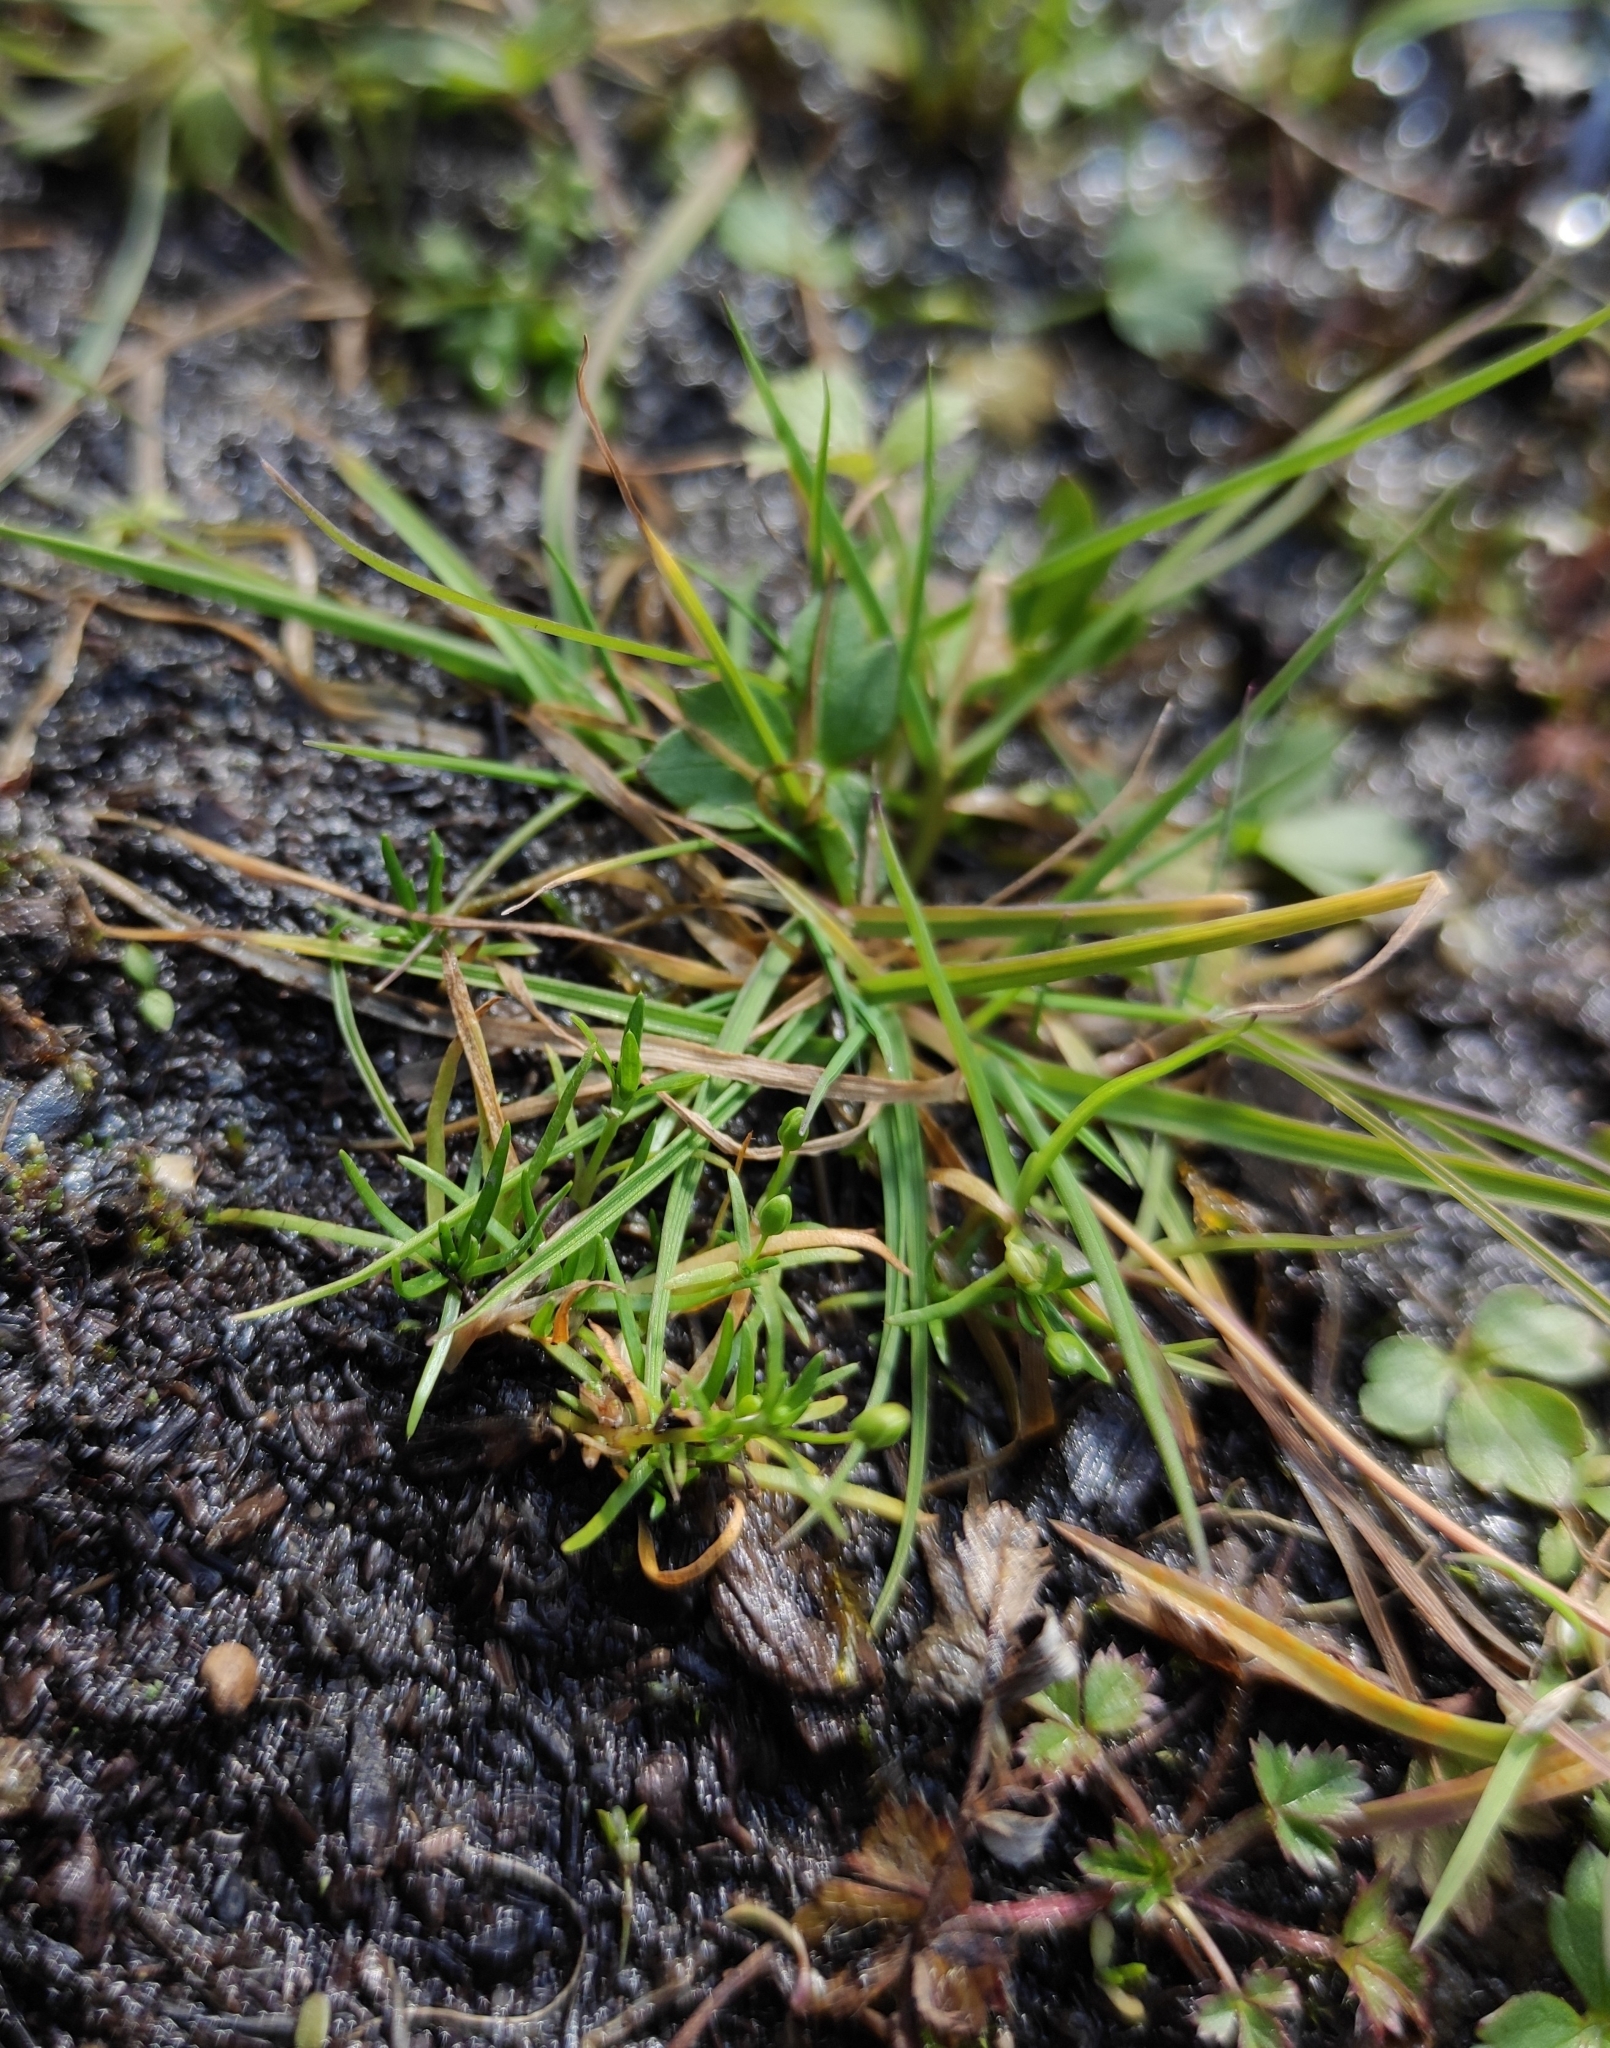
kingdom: Plantae
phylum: Tracheophyta
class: Magnoliopsida
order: Caryophyllales
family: Caryophyllaceae
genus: Sagina
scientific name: Sagina procumbens
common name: Procumbent pearlwort
